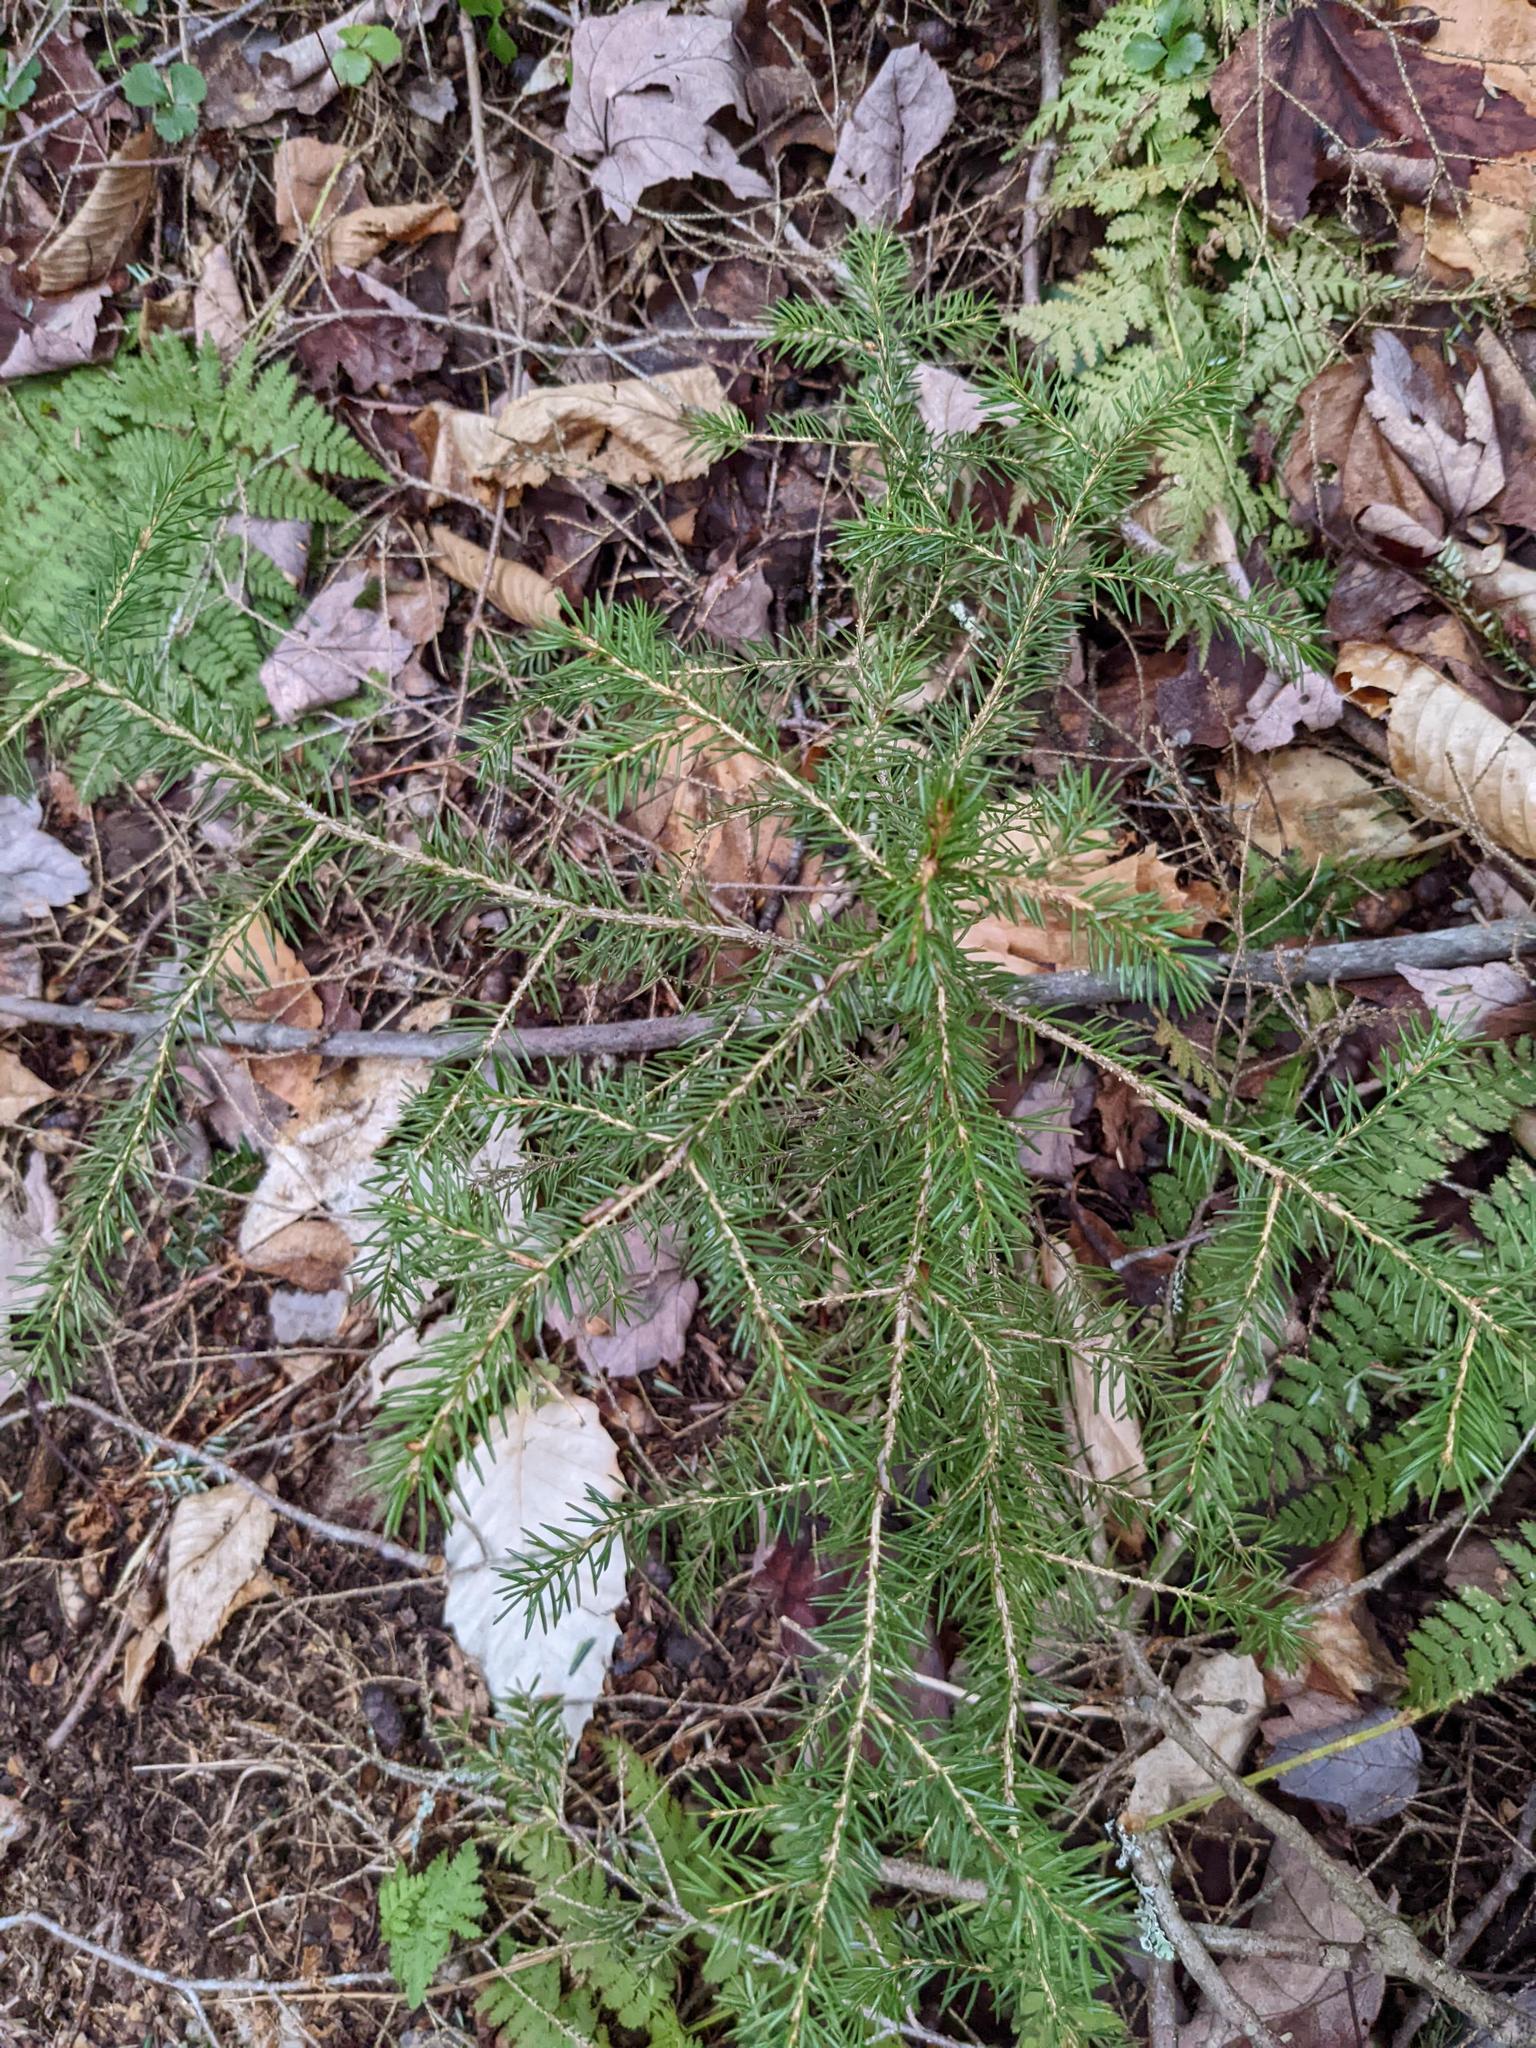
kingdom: Plantae
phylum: Tracheophyta
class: Pinopsida
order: Pinales
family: Pinaceae
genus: Picea
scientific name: Picea rubens
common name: Red spruce
